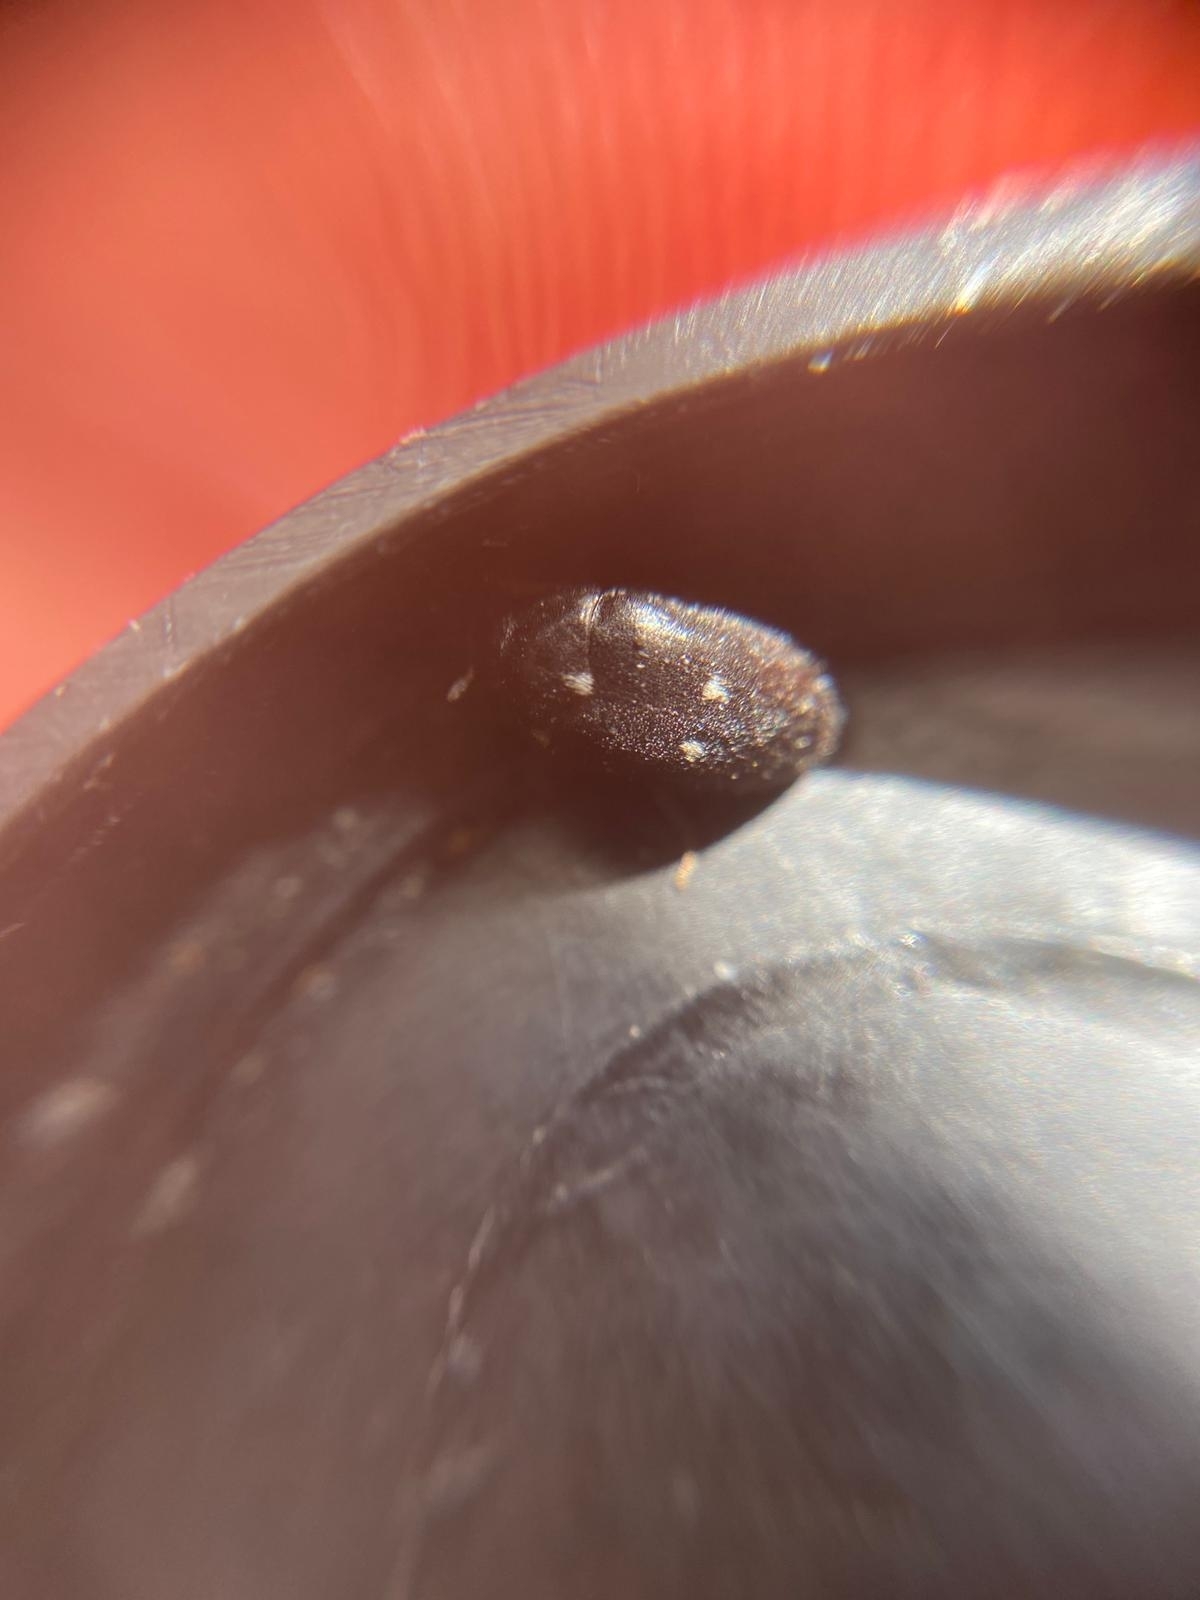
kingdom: Animalia
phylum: Arthropoda
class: Insecta
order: Coleoptera
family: Dermestidae
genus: Attagenus
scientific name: Attagenus pellio
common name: Two-spotted carpet beetle
